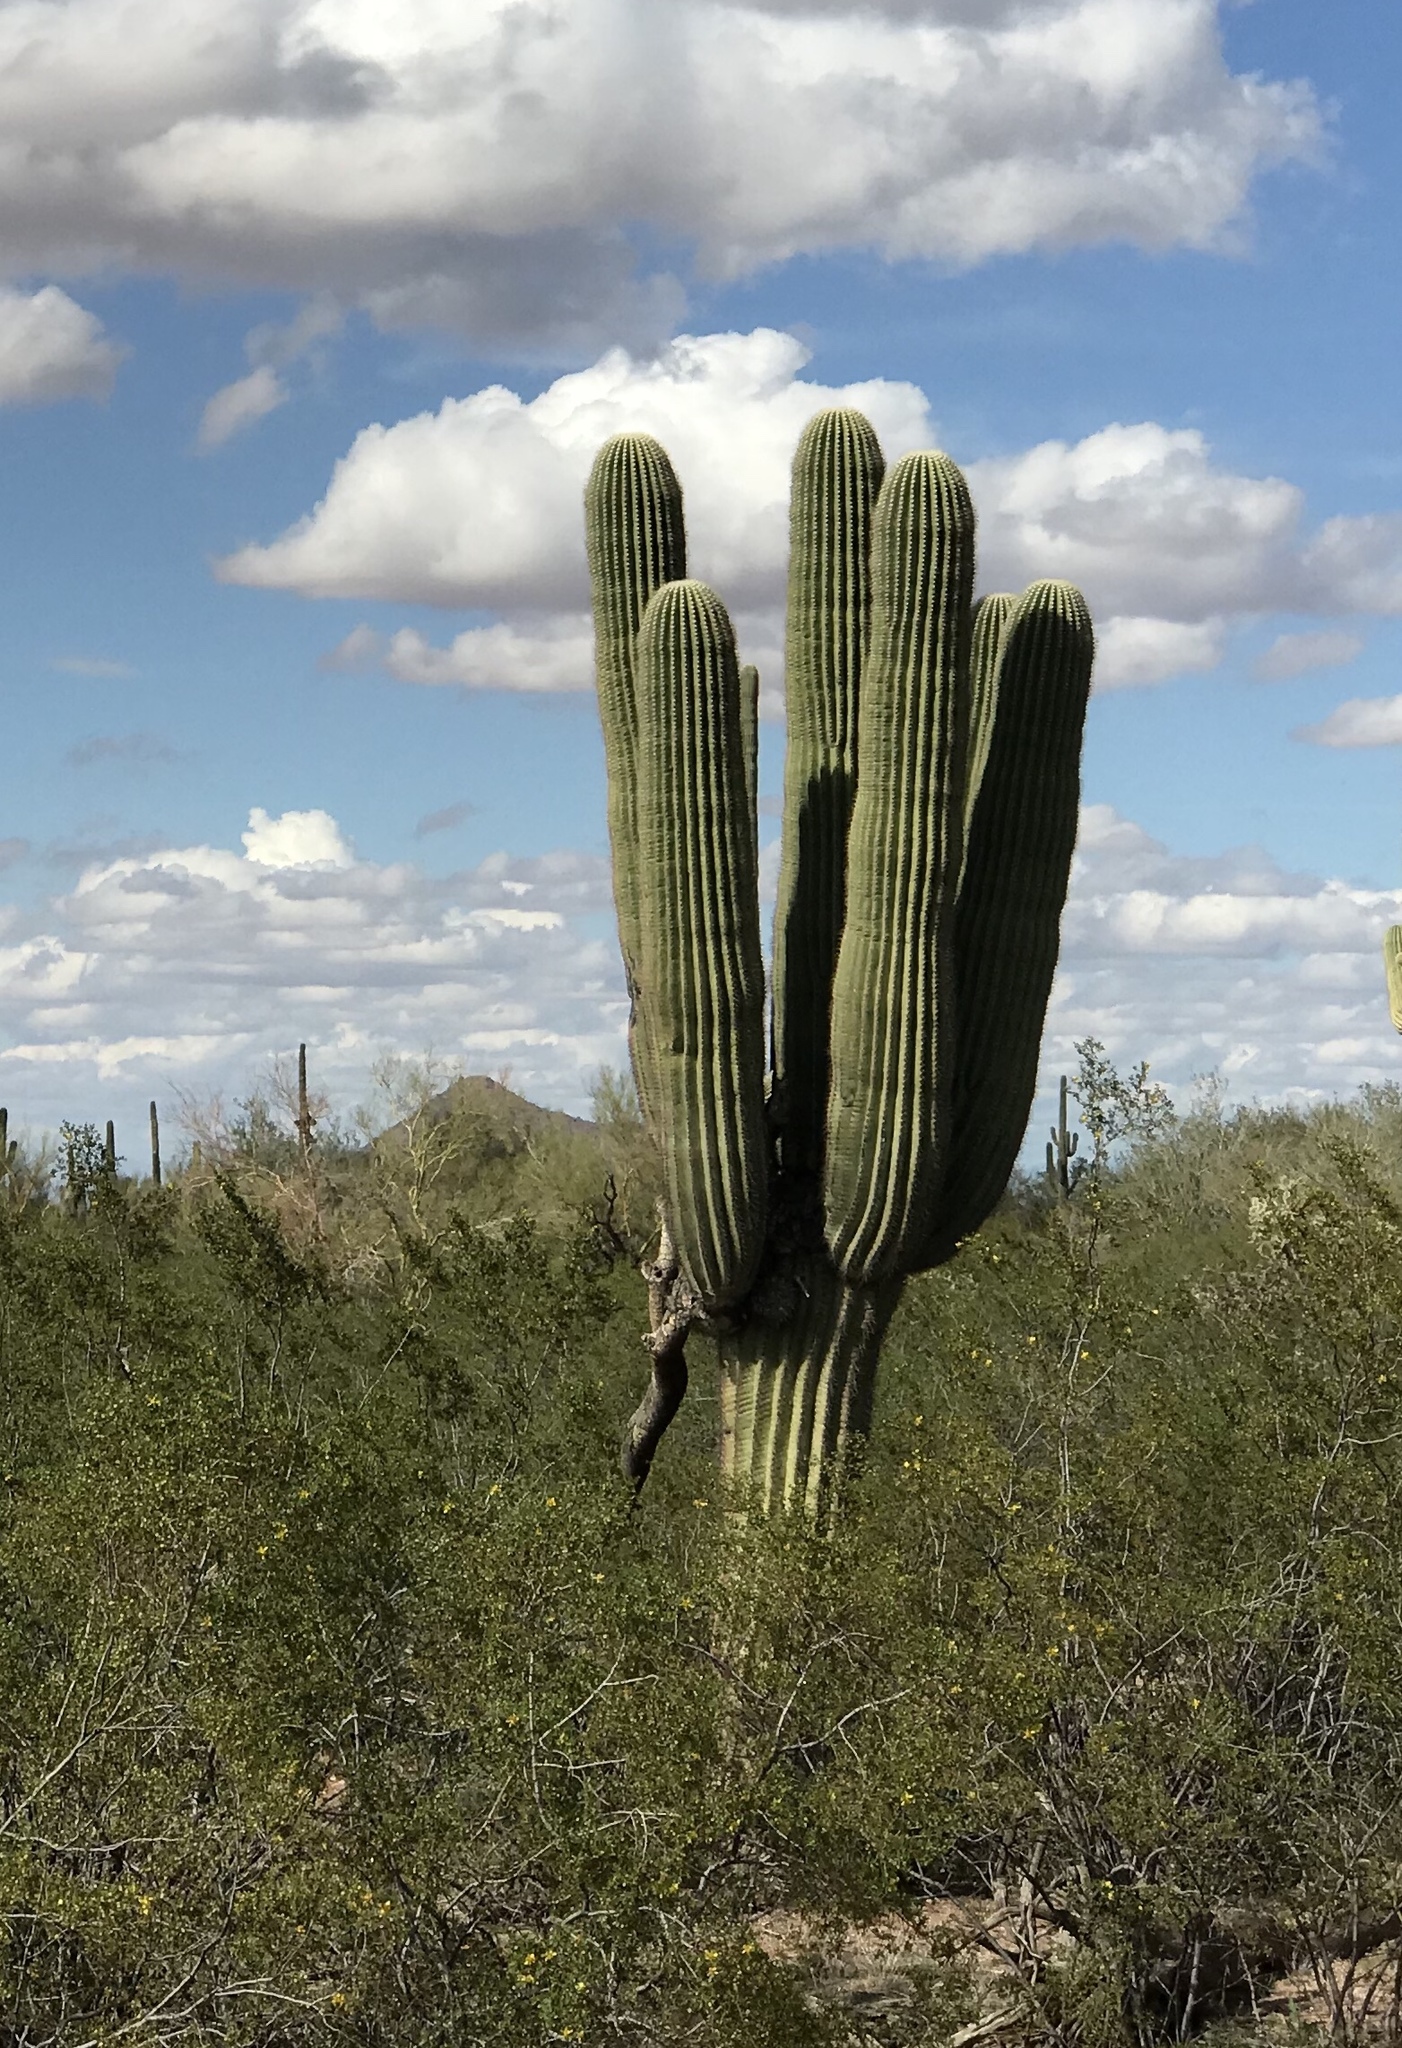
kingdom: Plantae
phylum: Tracheophyta
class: Magnoliopsida
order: Caryophyllales
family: Cactaceae
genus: Carnegiea
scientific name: Carnegiea gigantea
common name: Saguaro
